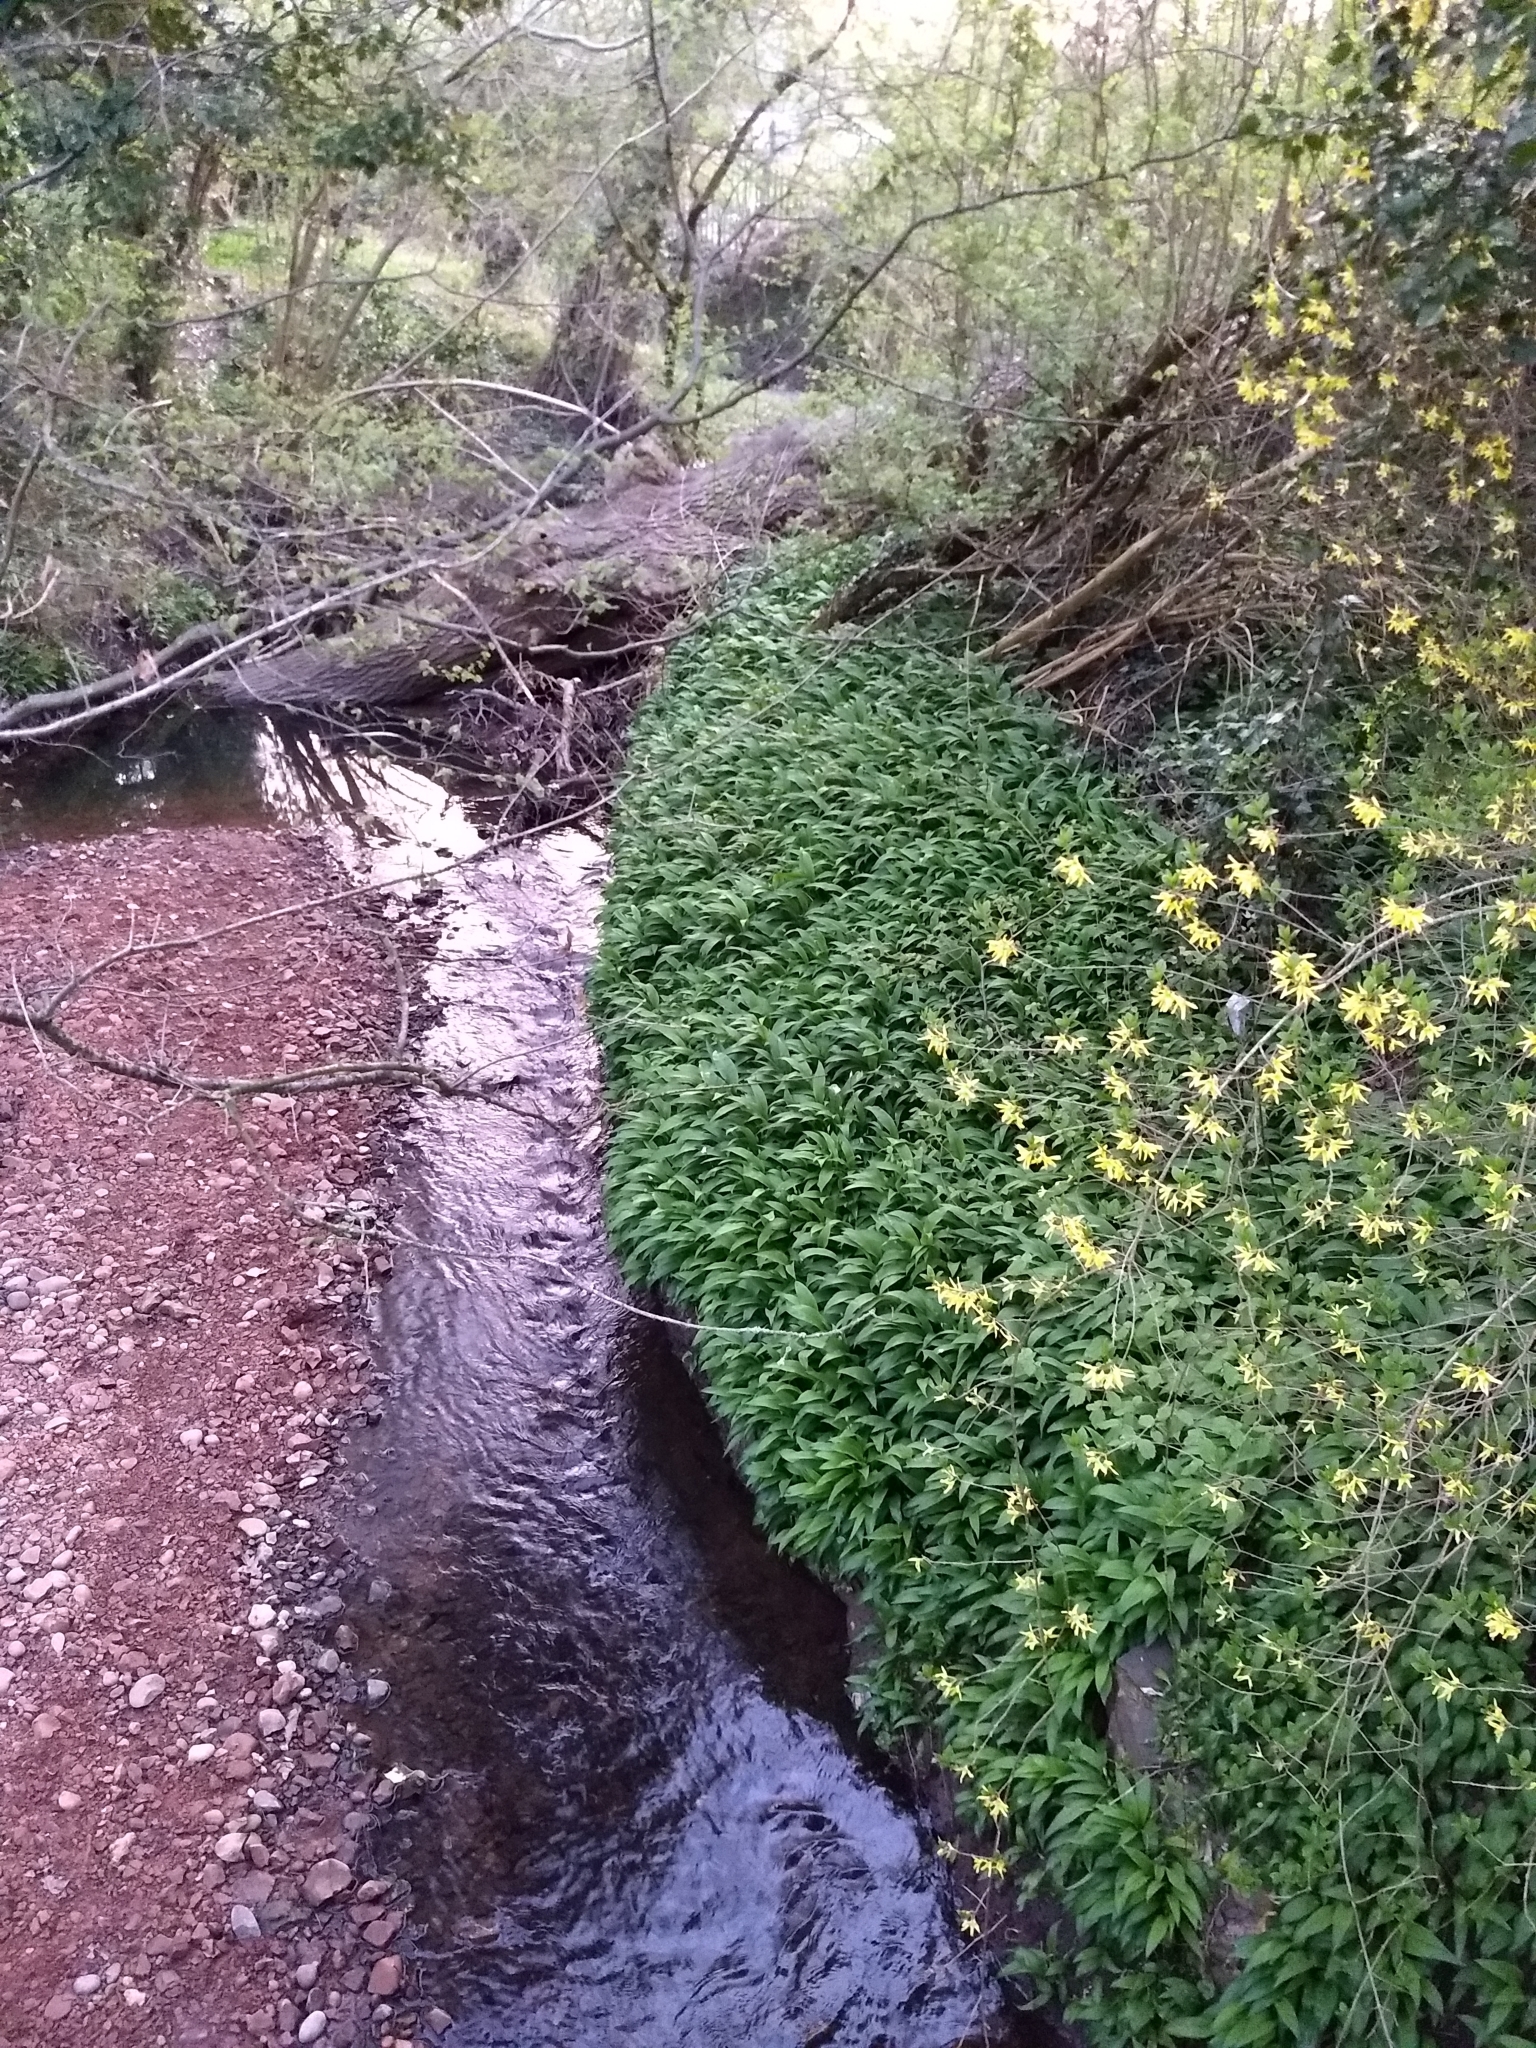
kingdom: Plantae
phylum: Tracheophyta
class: Liliopsida
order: Asparagales
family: Amaryllidaceae
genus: Allium
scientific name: Allium ursinum
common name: Ramsons
